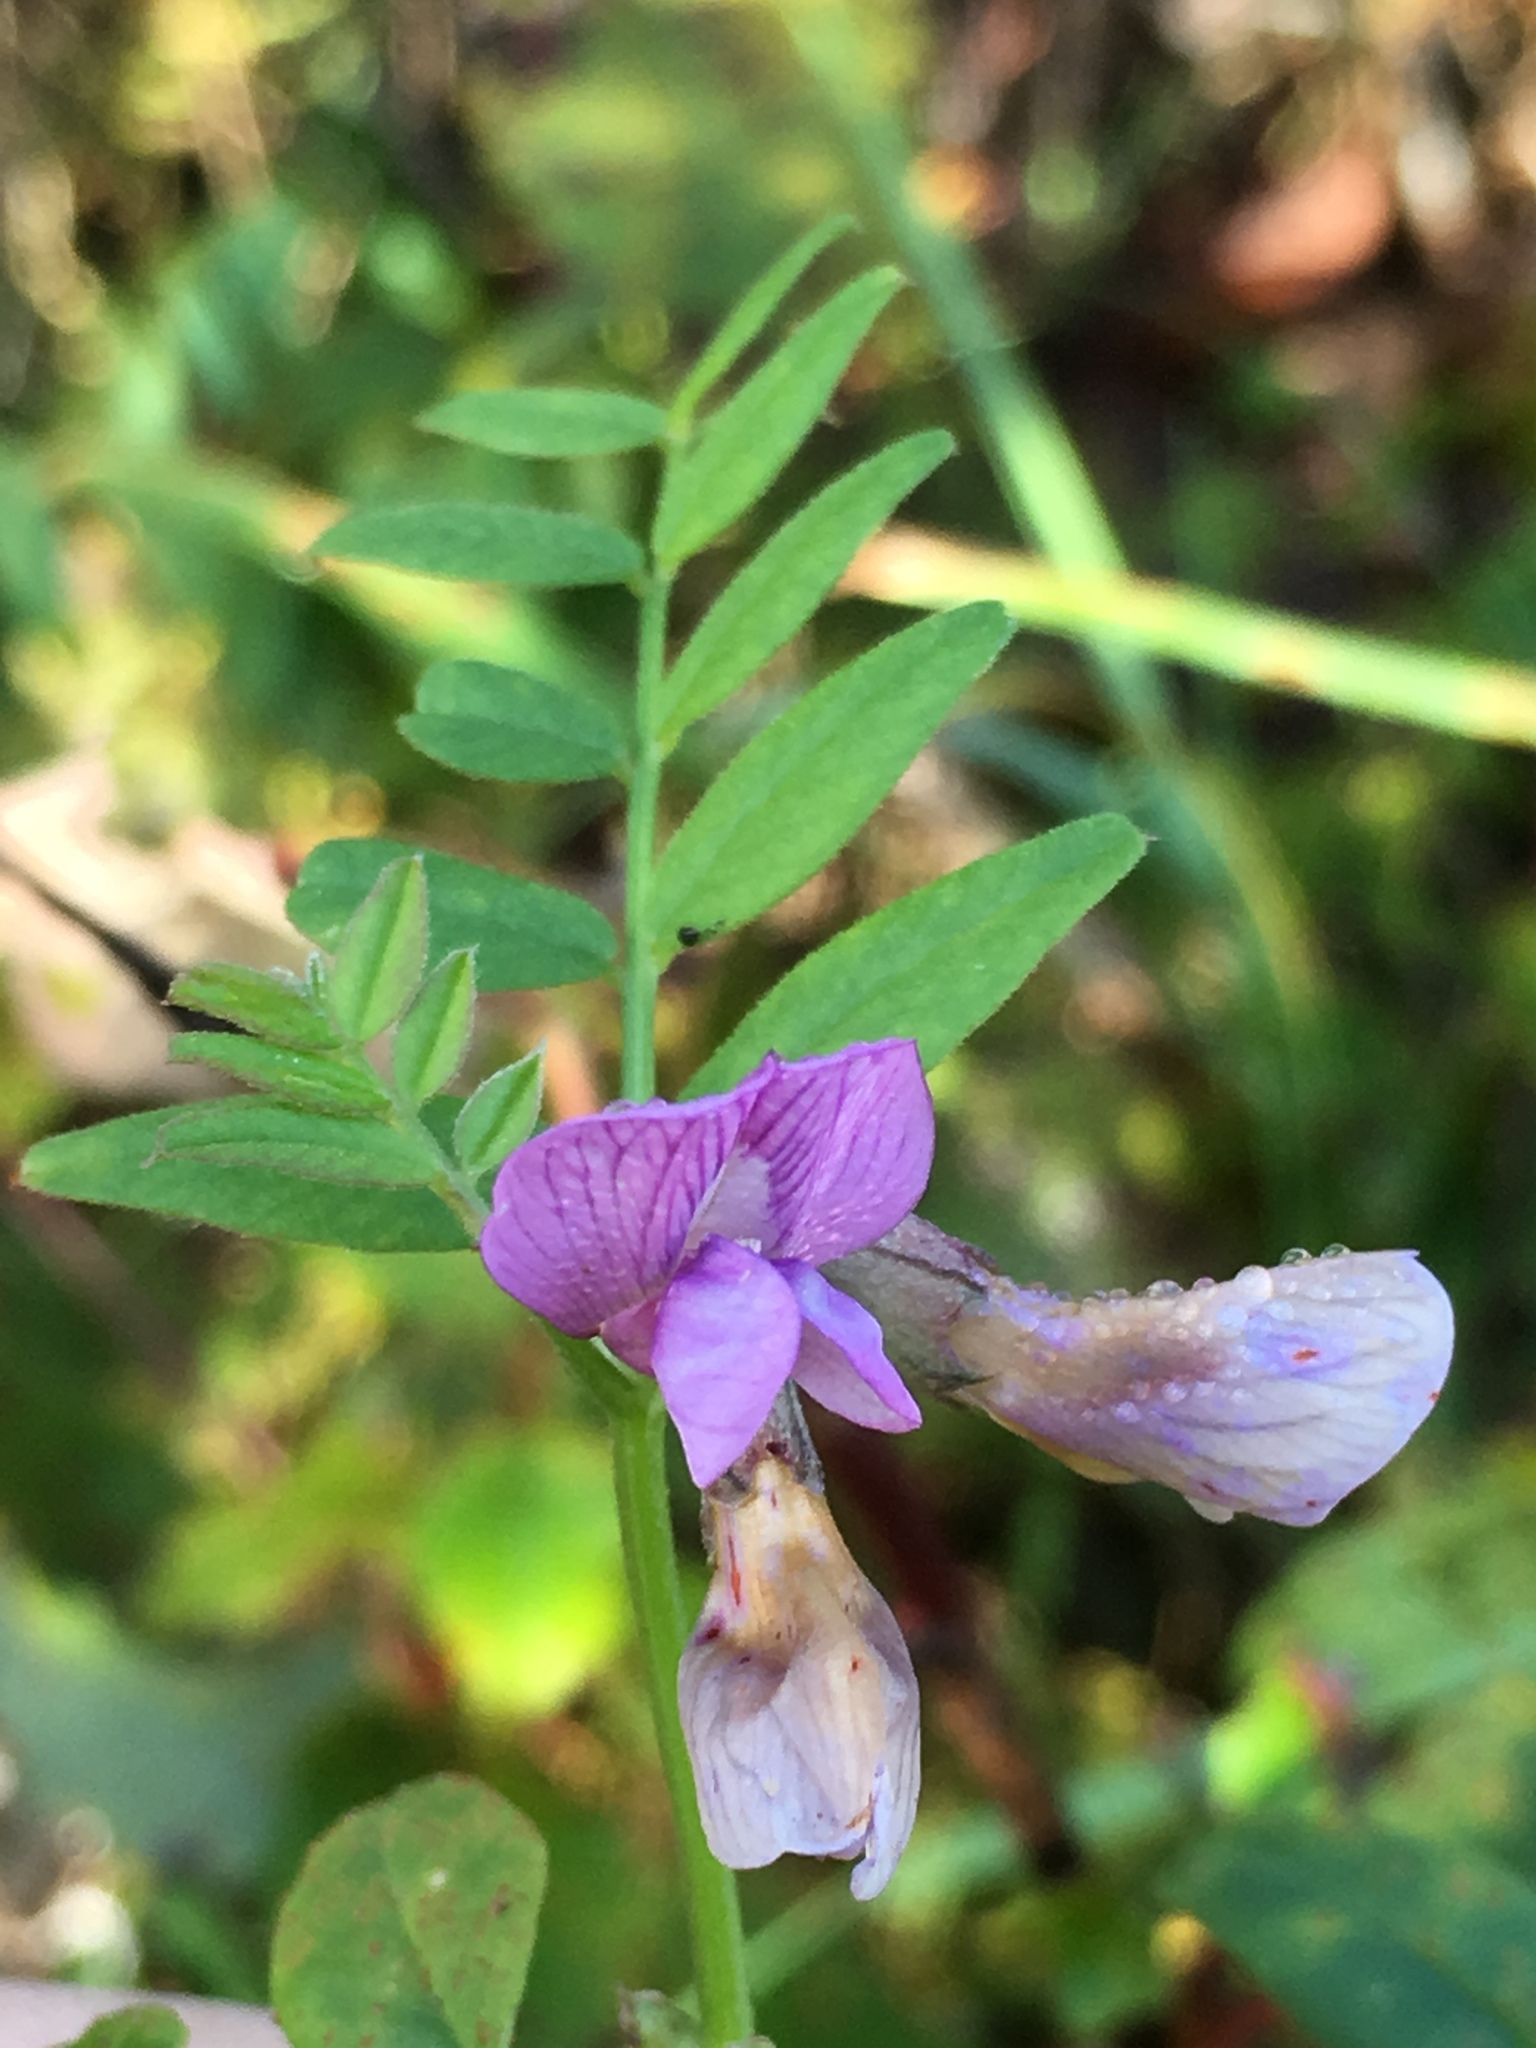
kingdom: Plantae
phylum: Tracheophyta
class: Magnoliopsida
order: Fabales
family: Fabaceae
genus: Vicia
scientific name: Vicia sepium
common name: Bush vetch
